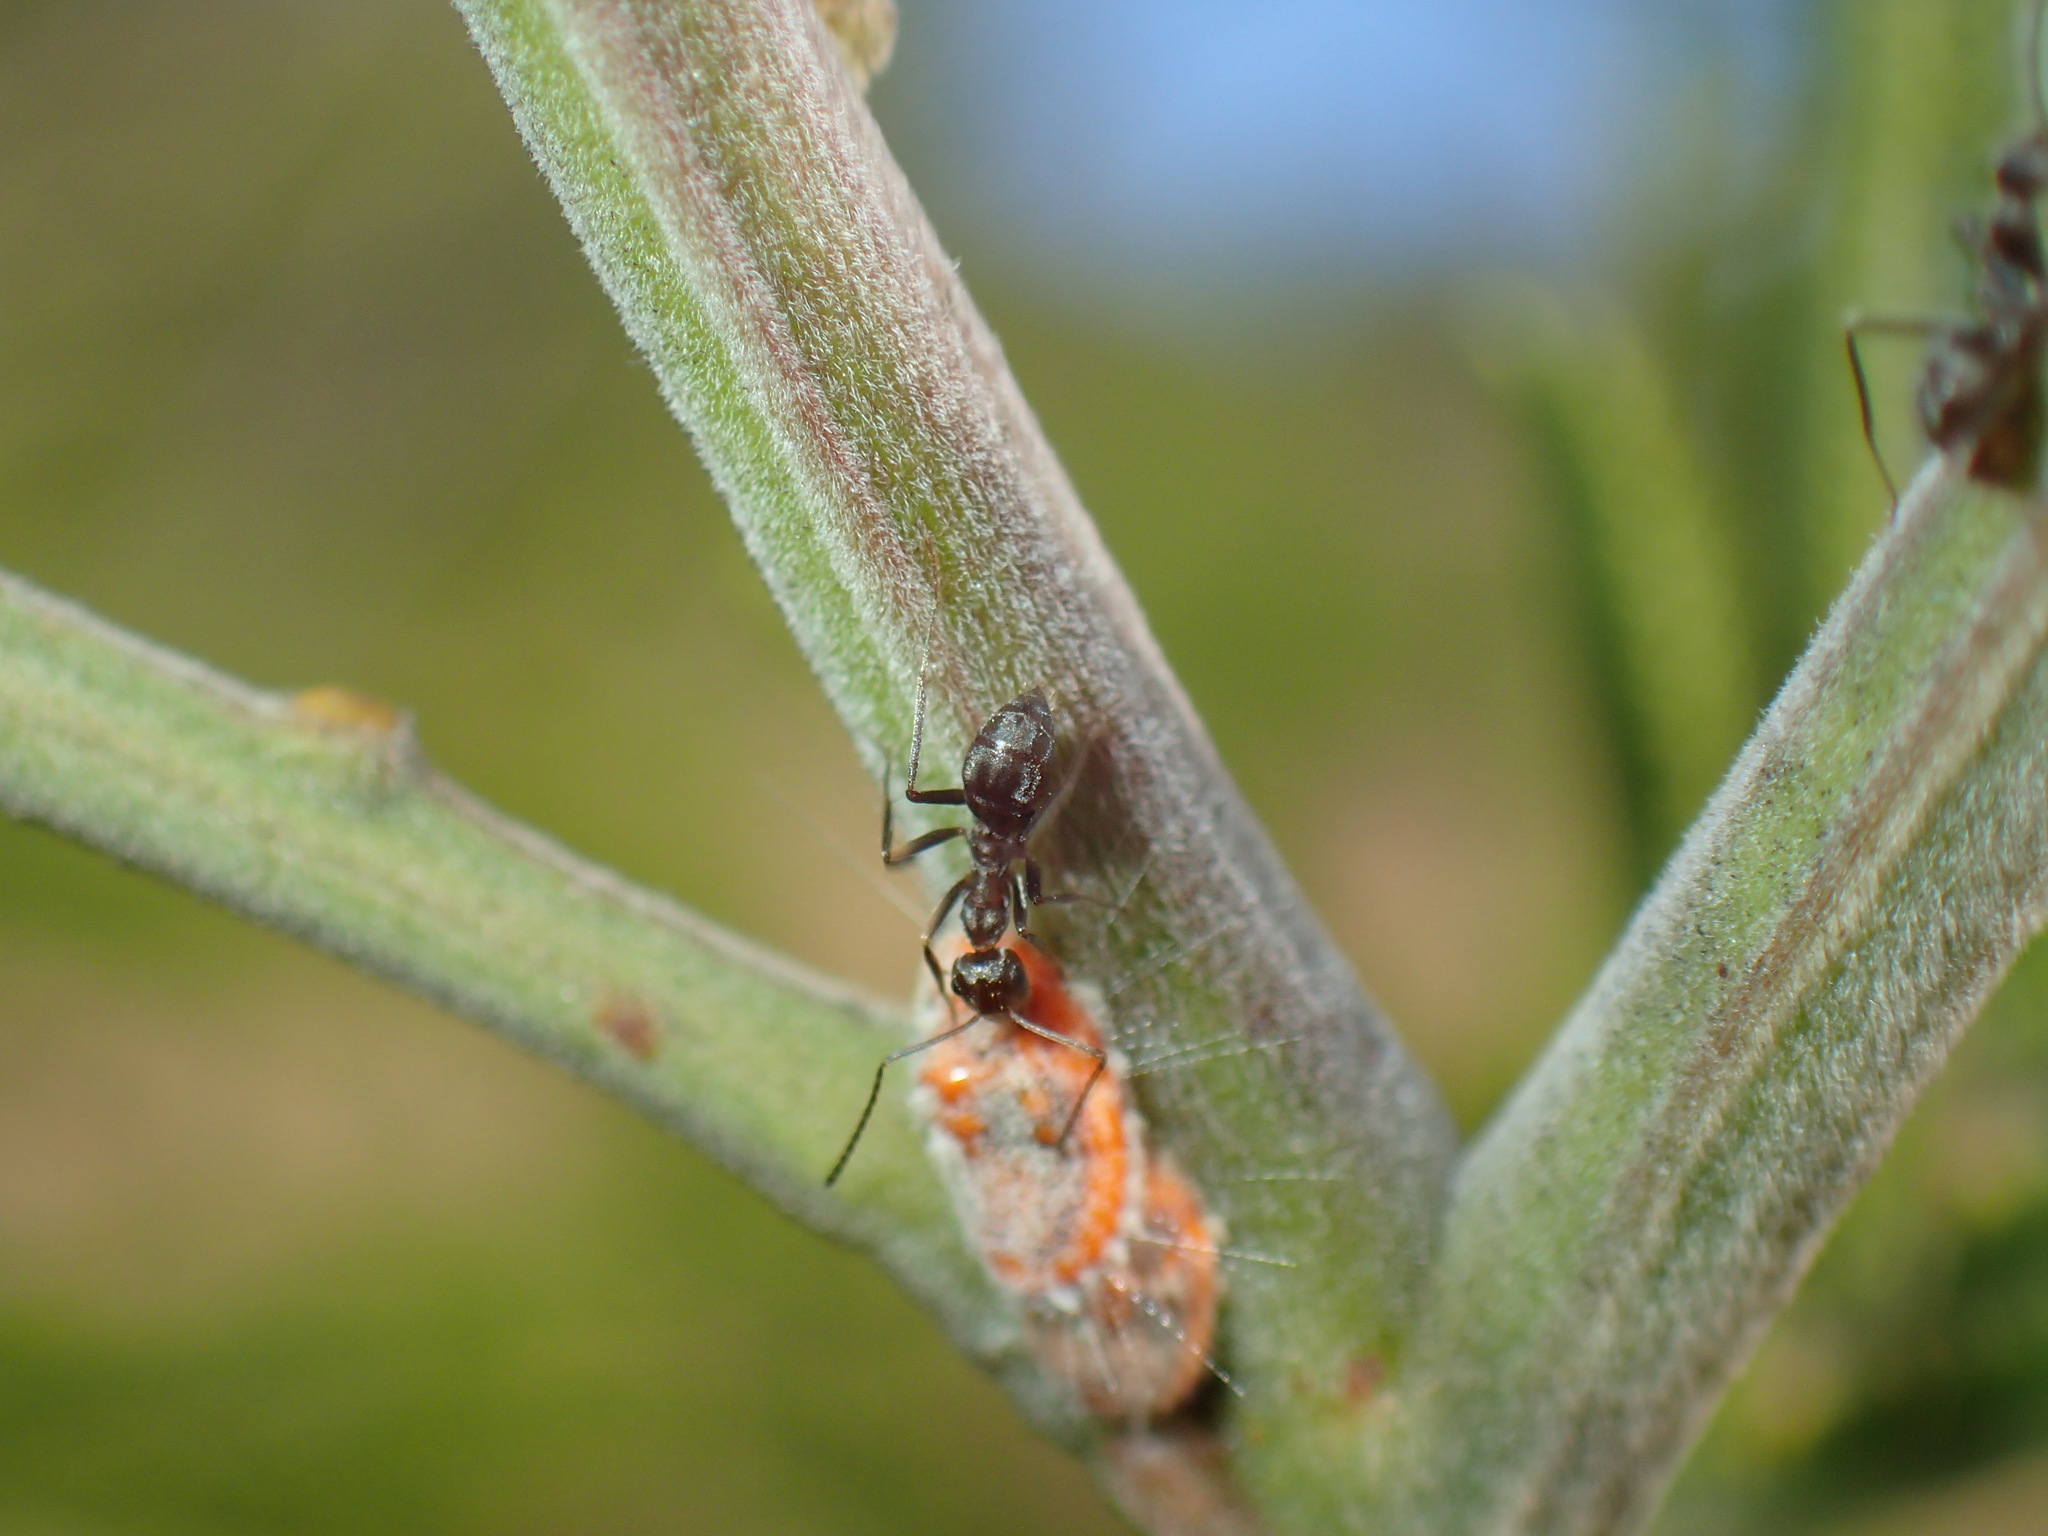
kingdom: Animalia
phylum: Arthropoda
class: Insecta
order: Hymenoptera
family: Formicidae
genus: Anoplolepis
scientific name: Anoplolepis custodiens
